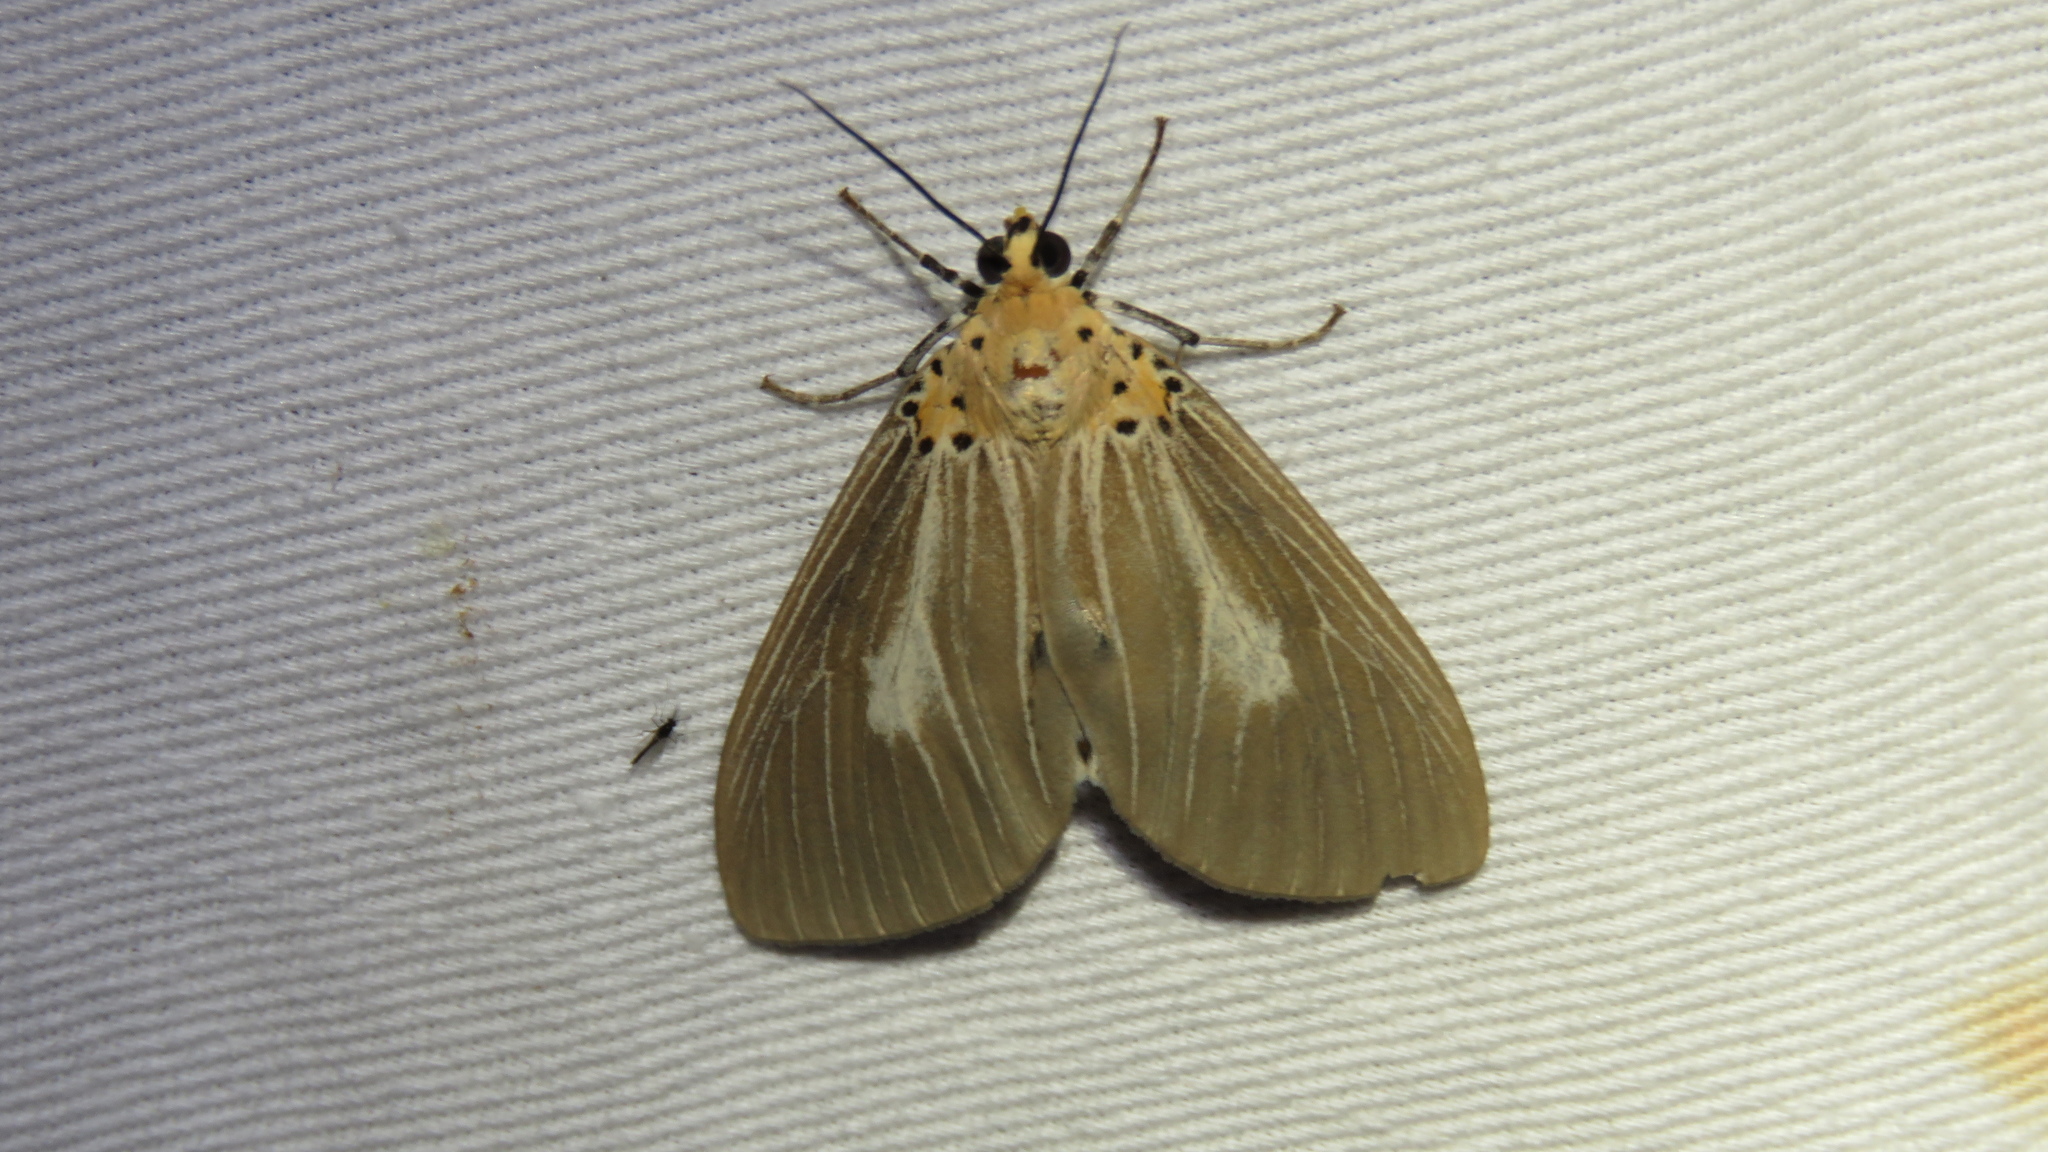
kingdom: Animalia
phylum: Arthropoda
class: Insecta
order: Lepidoptera
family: Erebidae
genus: Asota
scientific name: Asota heliconia
